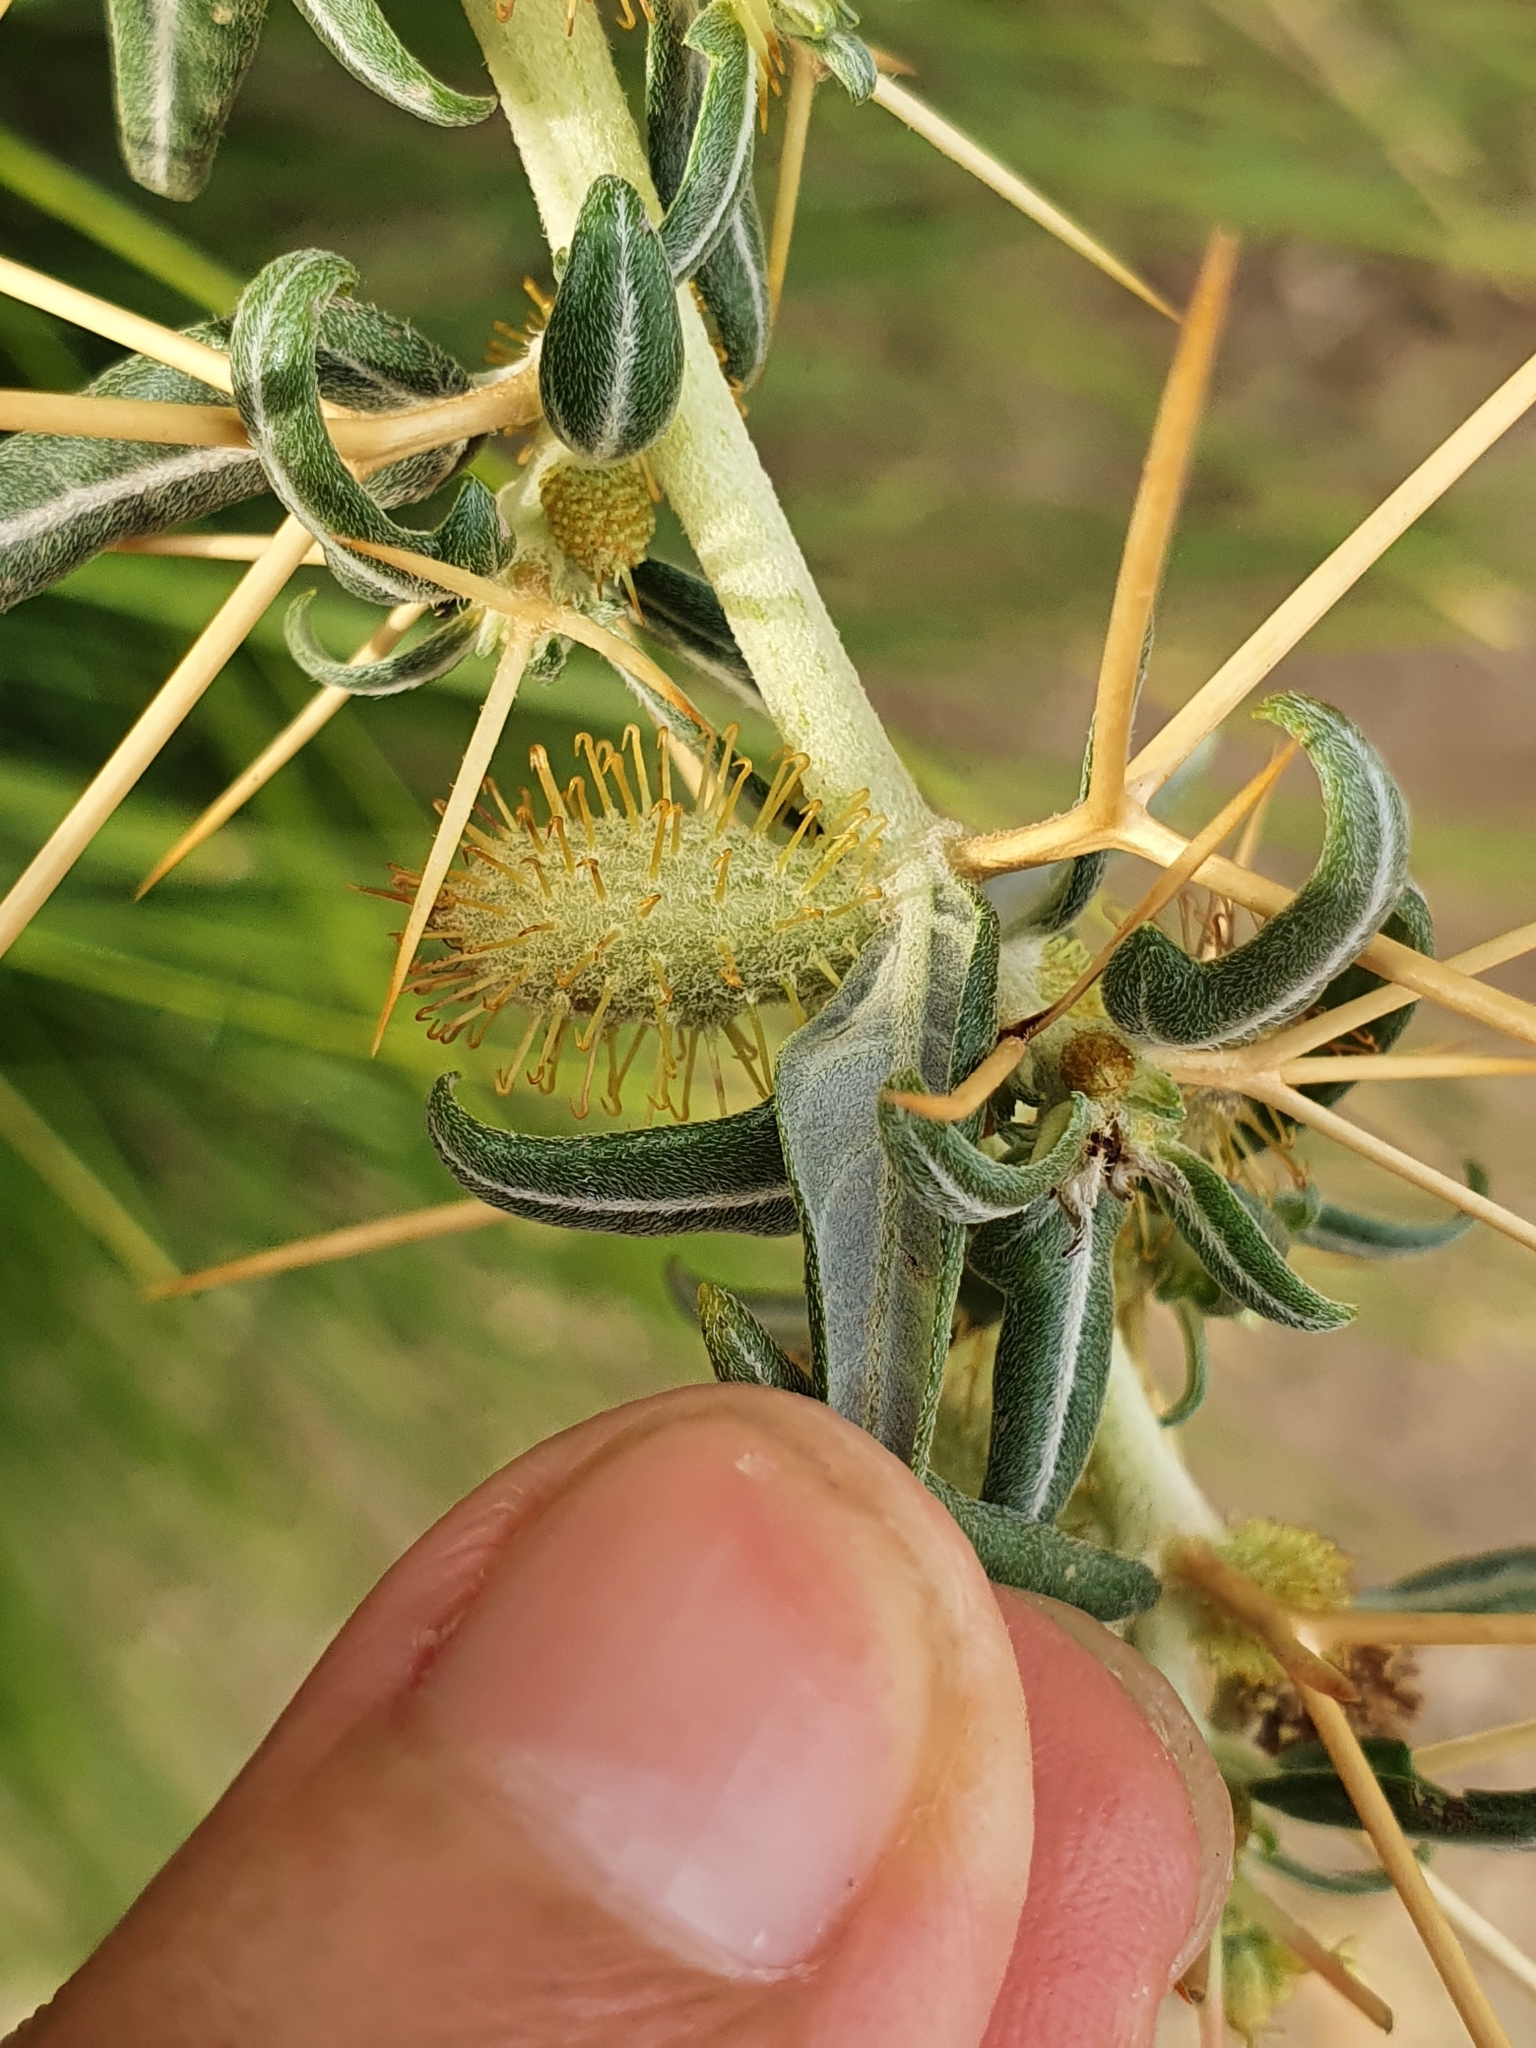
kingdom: Plantae
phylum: Tracheophyta
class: Magnoliopsida
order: Asterales
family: Asteraceae
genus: Xanthium
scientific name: Xanthium spinosum
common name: Spiny cocklebur
